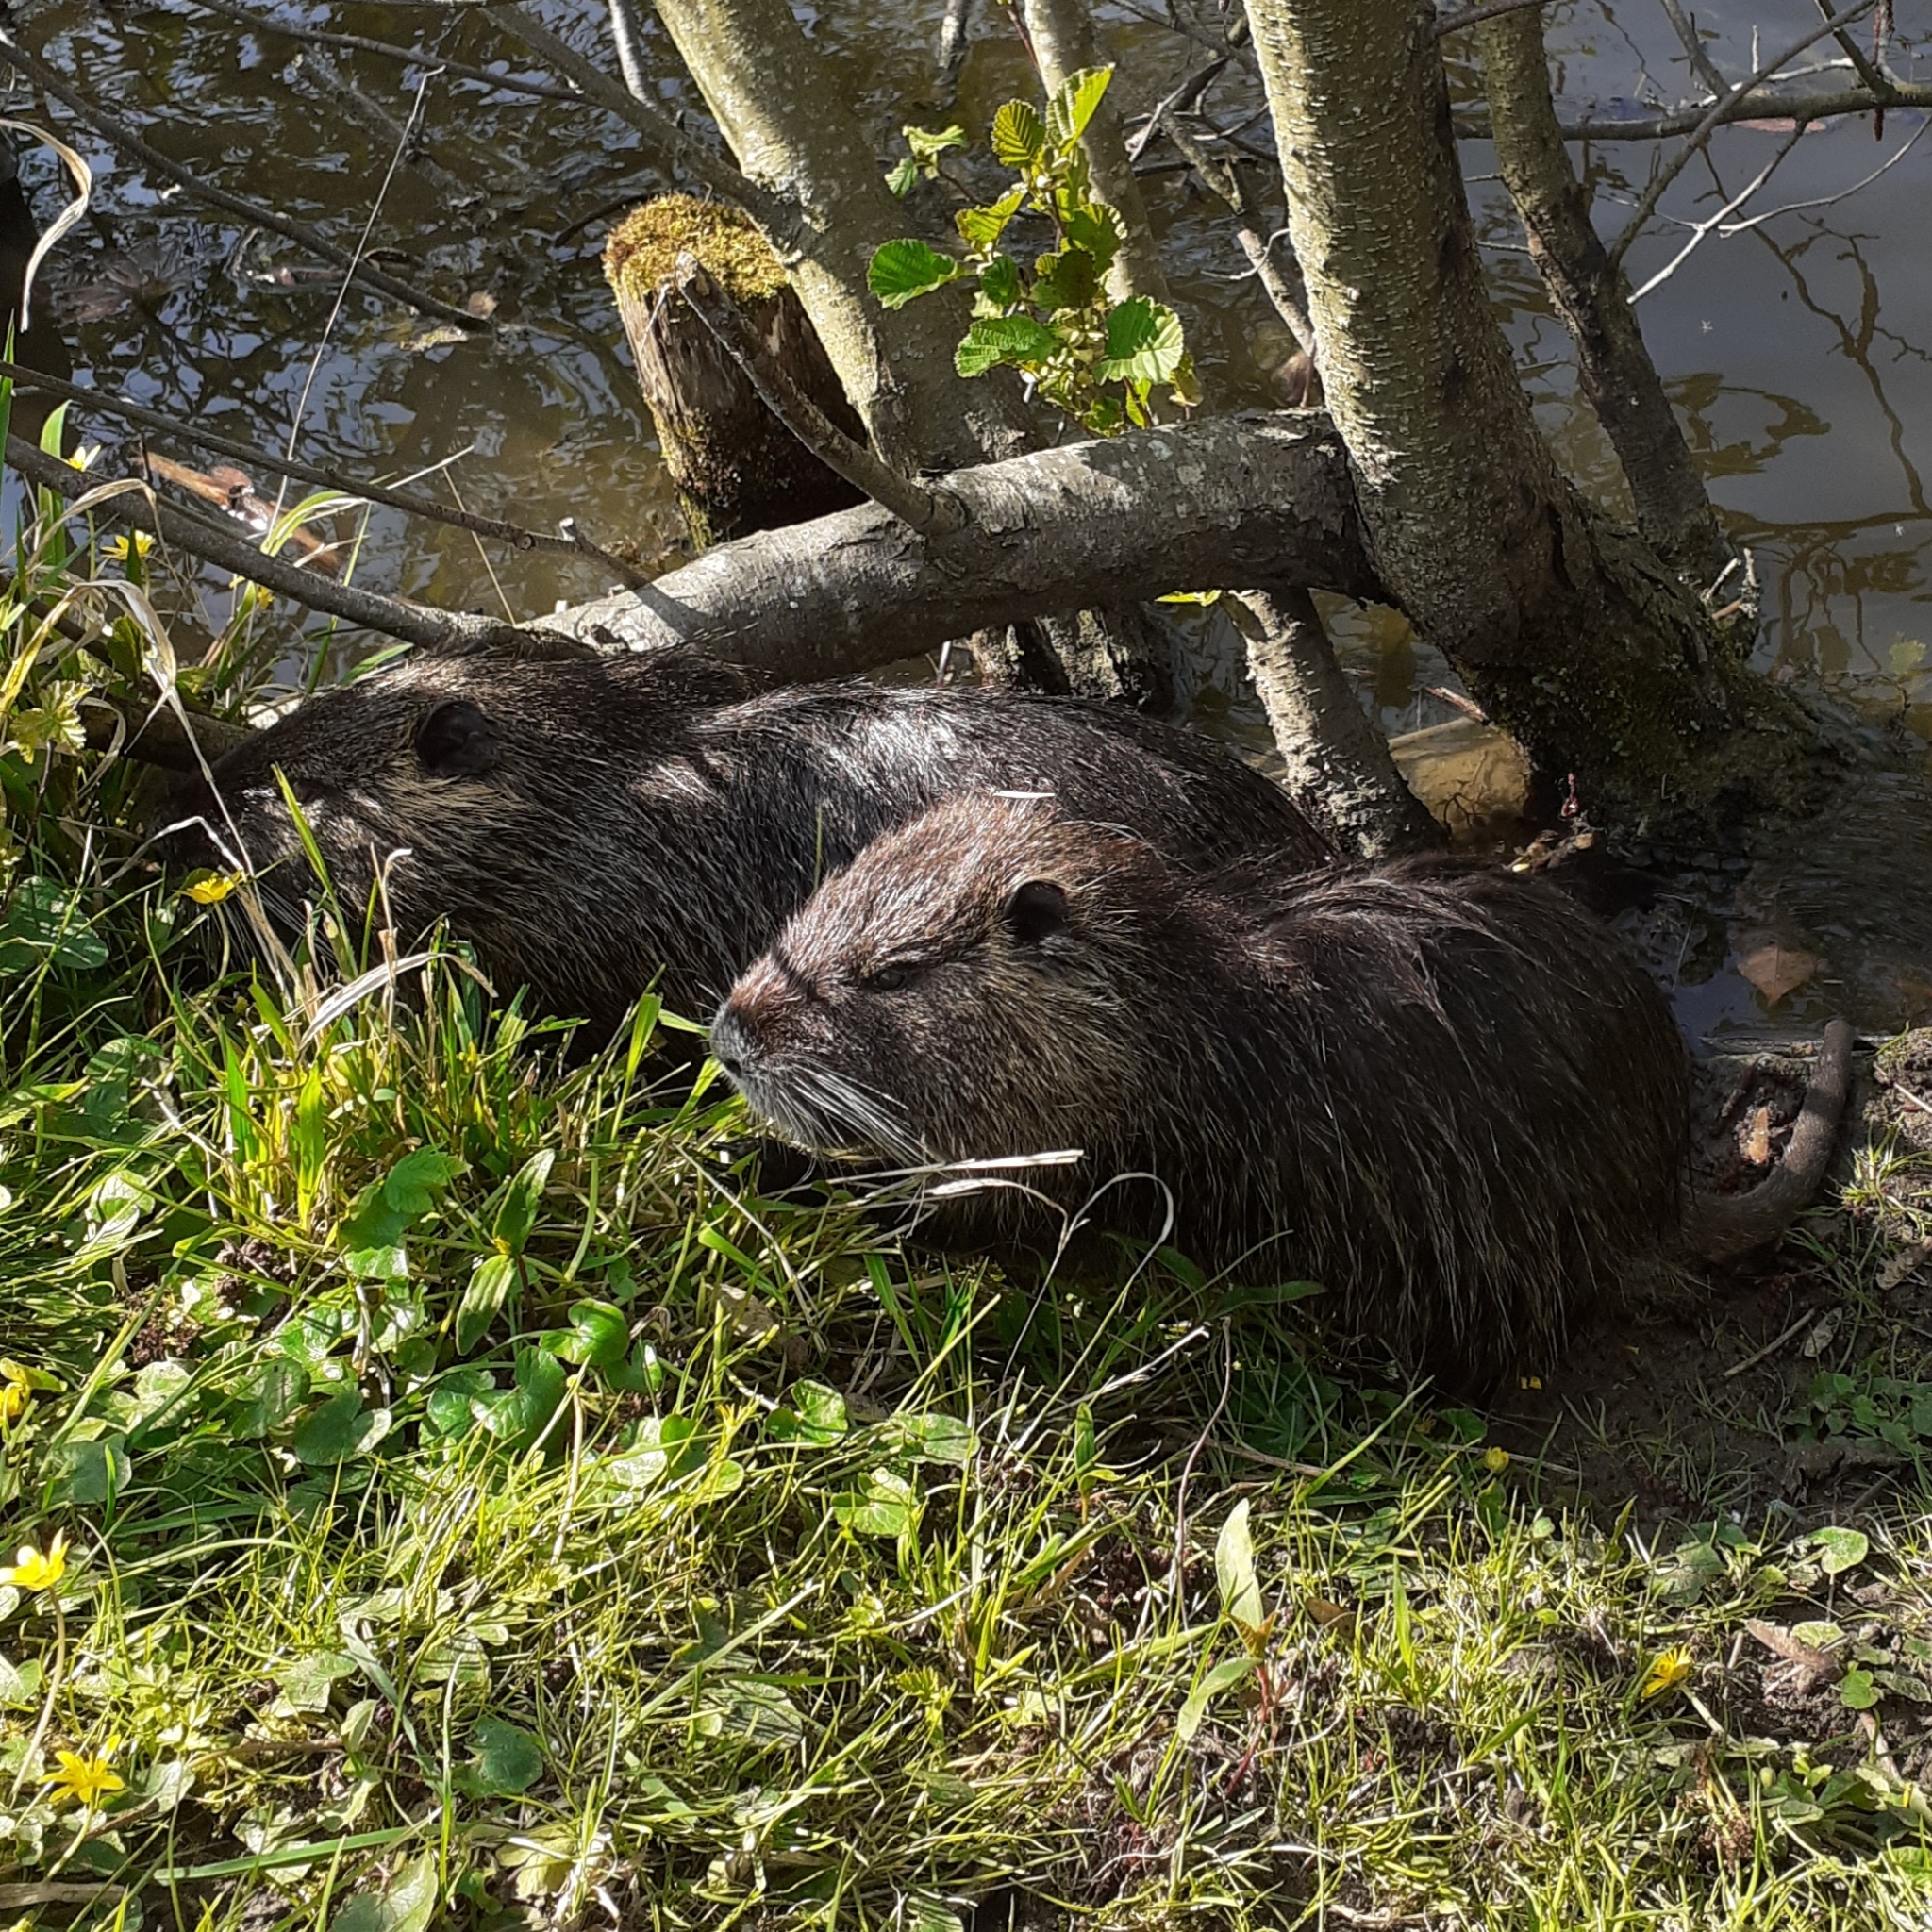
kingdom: Animalia
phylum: Chordata
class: Mammalia
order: Rodentia
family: Myocastoridae
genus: Myocastor
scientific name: Myocastor coypus
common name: Coypu
